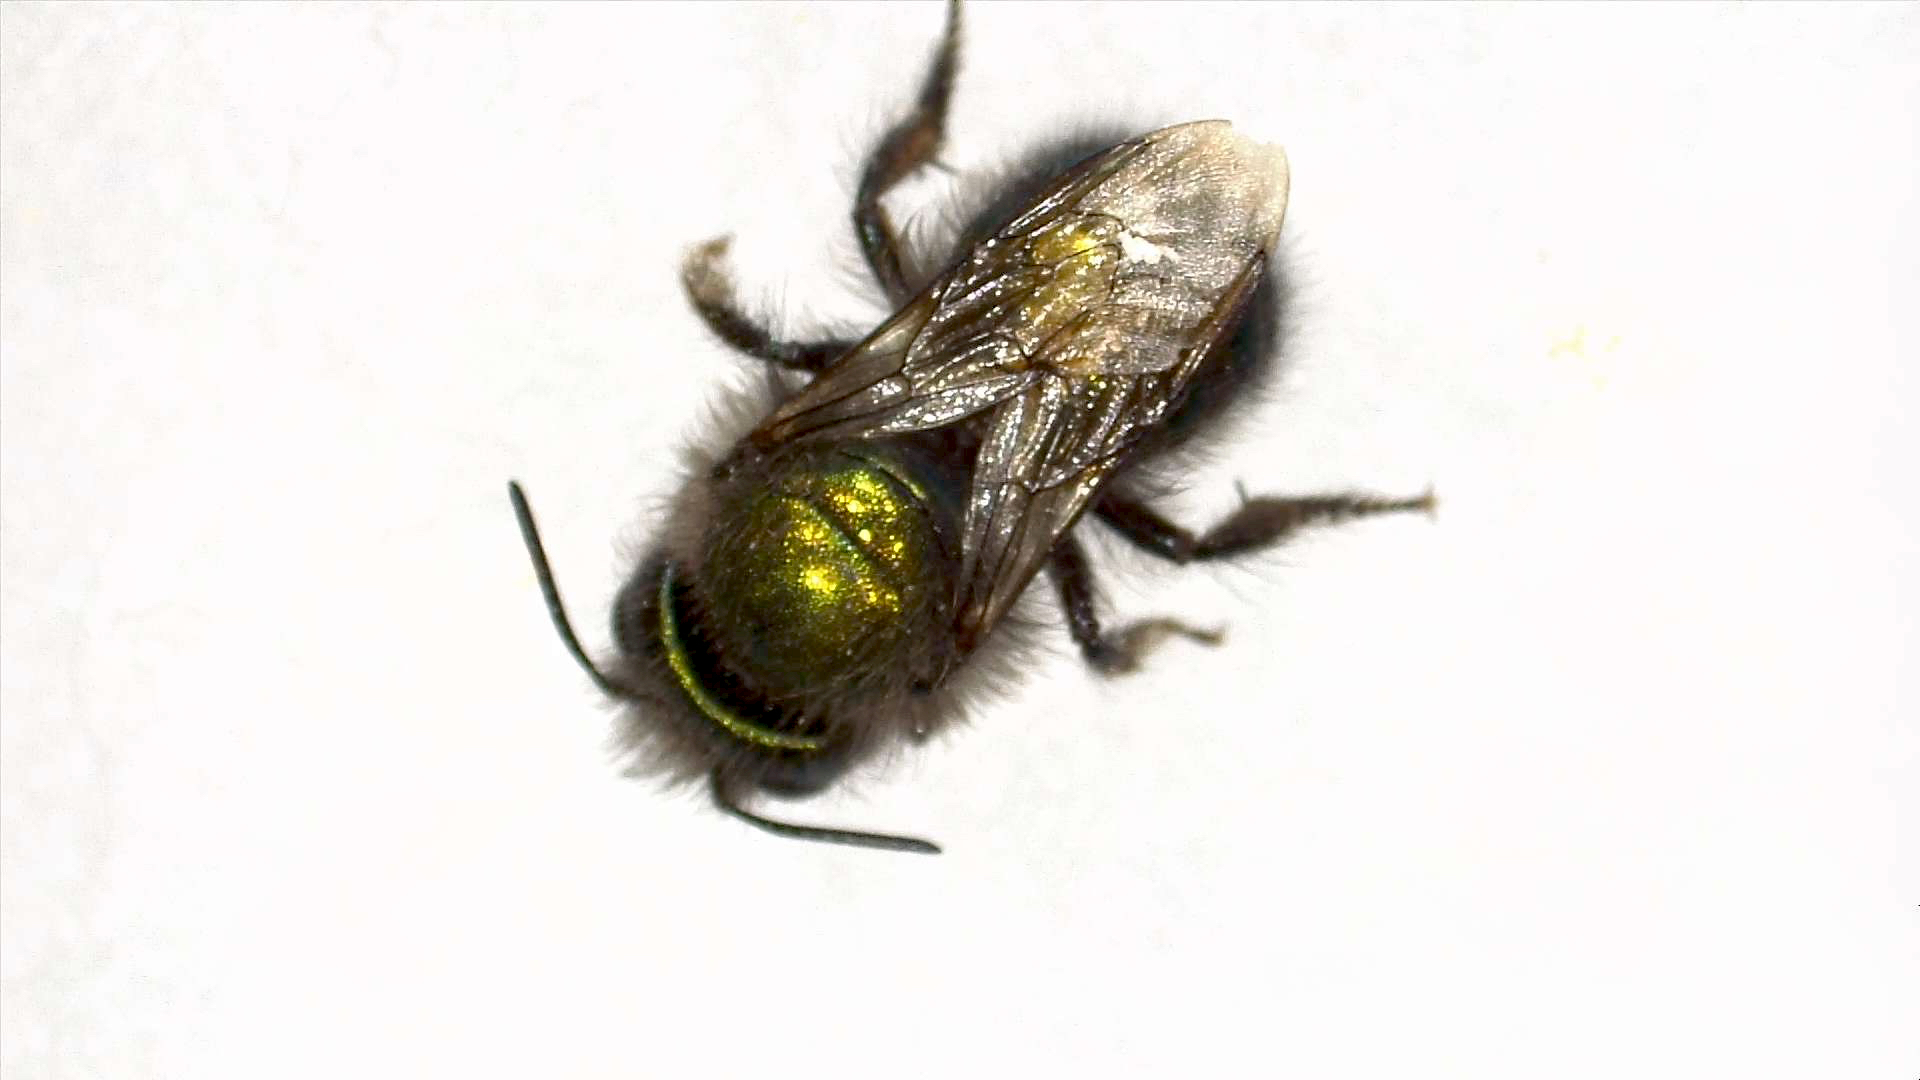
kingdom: Animalia
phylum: Arthropoda
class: Insecta
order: Hymenoptera
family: Megachilidae
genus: Osmia
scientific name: Osmia ribifloris
